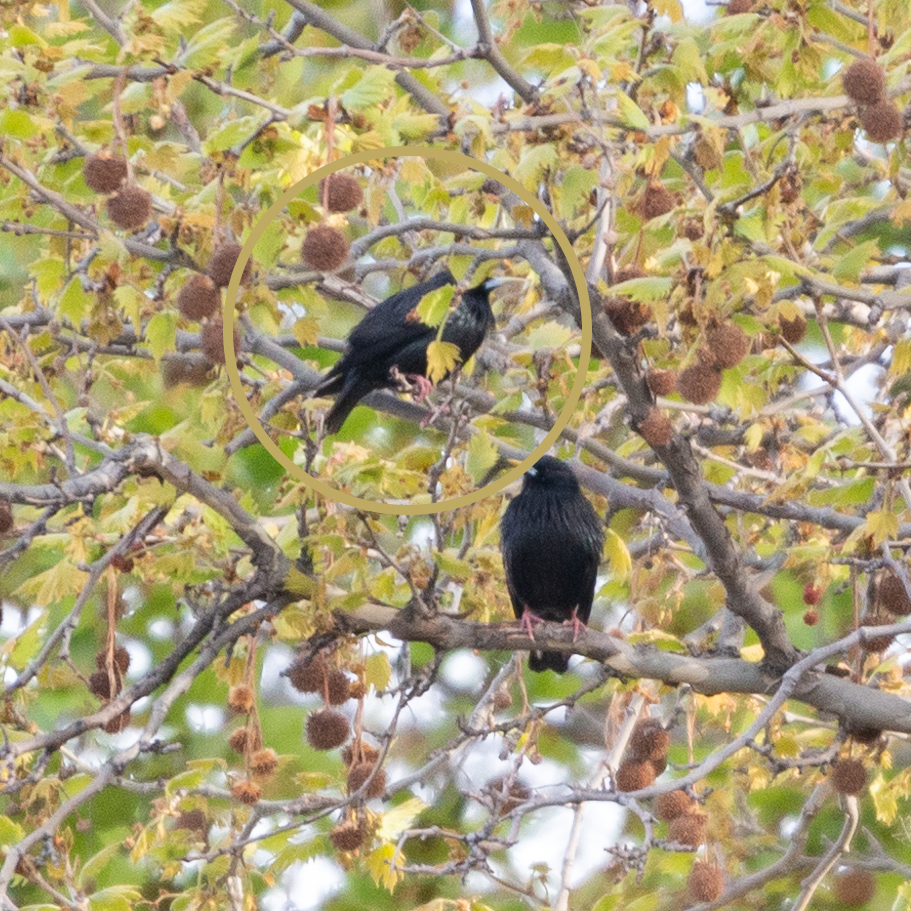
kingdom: Animalia
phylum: Chordata
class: Aves
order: Passeriformes
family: Sturnidae
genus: Sturnus
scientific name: Sturnus unicolor
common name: Spotless starling
